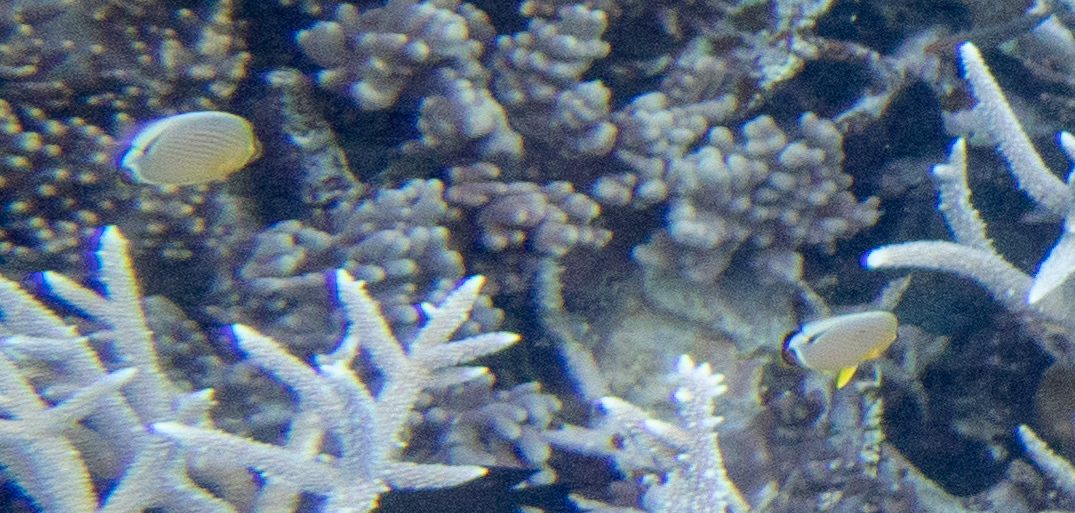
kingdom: Animalia
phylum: Chordata
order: Perciformes
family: Chaetodontidae
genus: Chaetodon
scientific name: Chaetodon lunulatus
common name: Redfin butterflyfish
